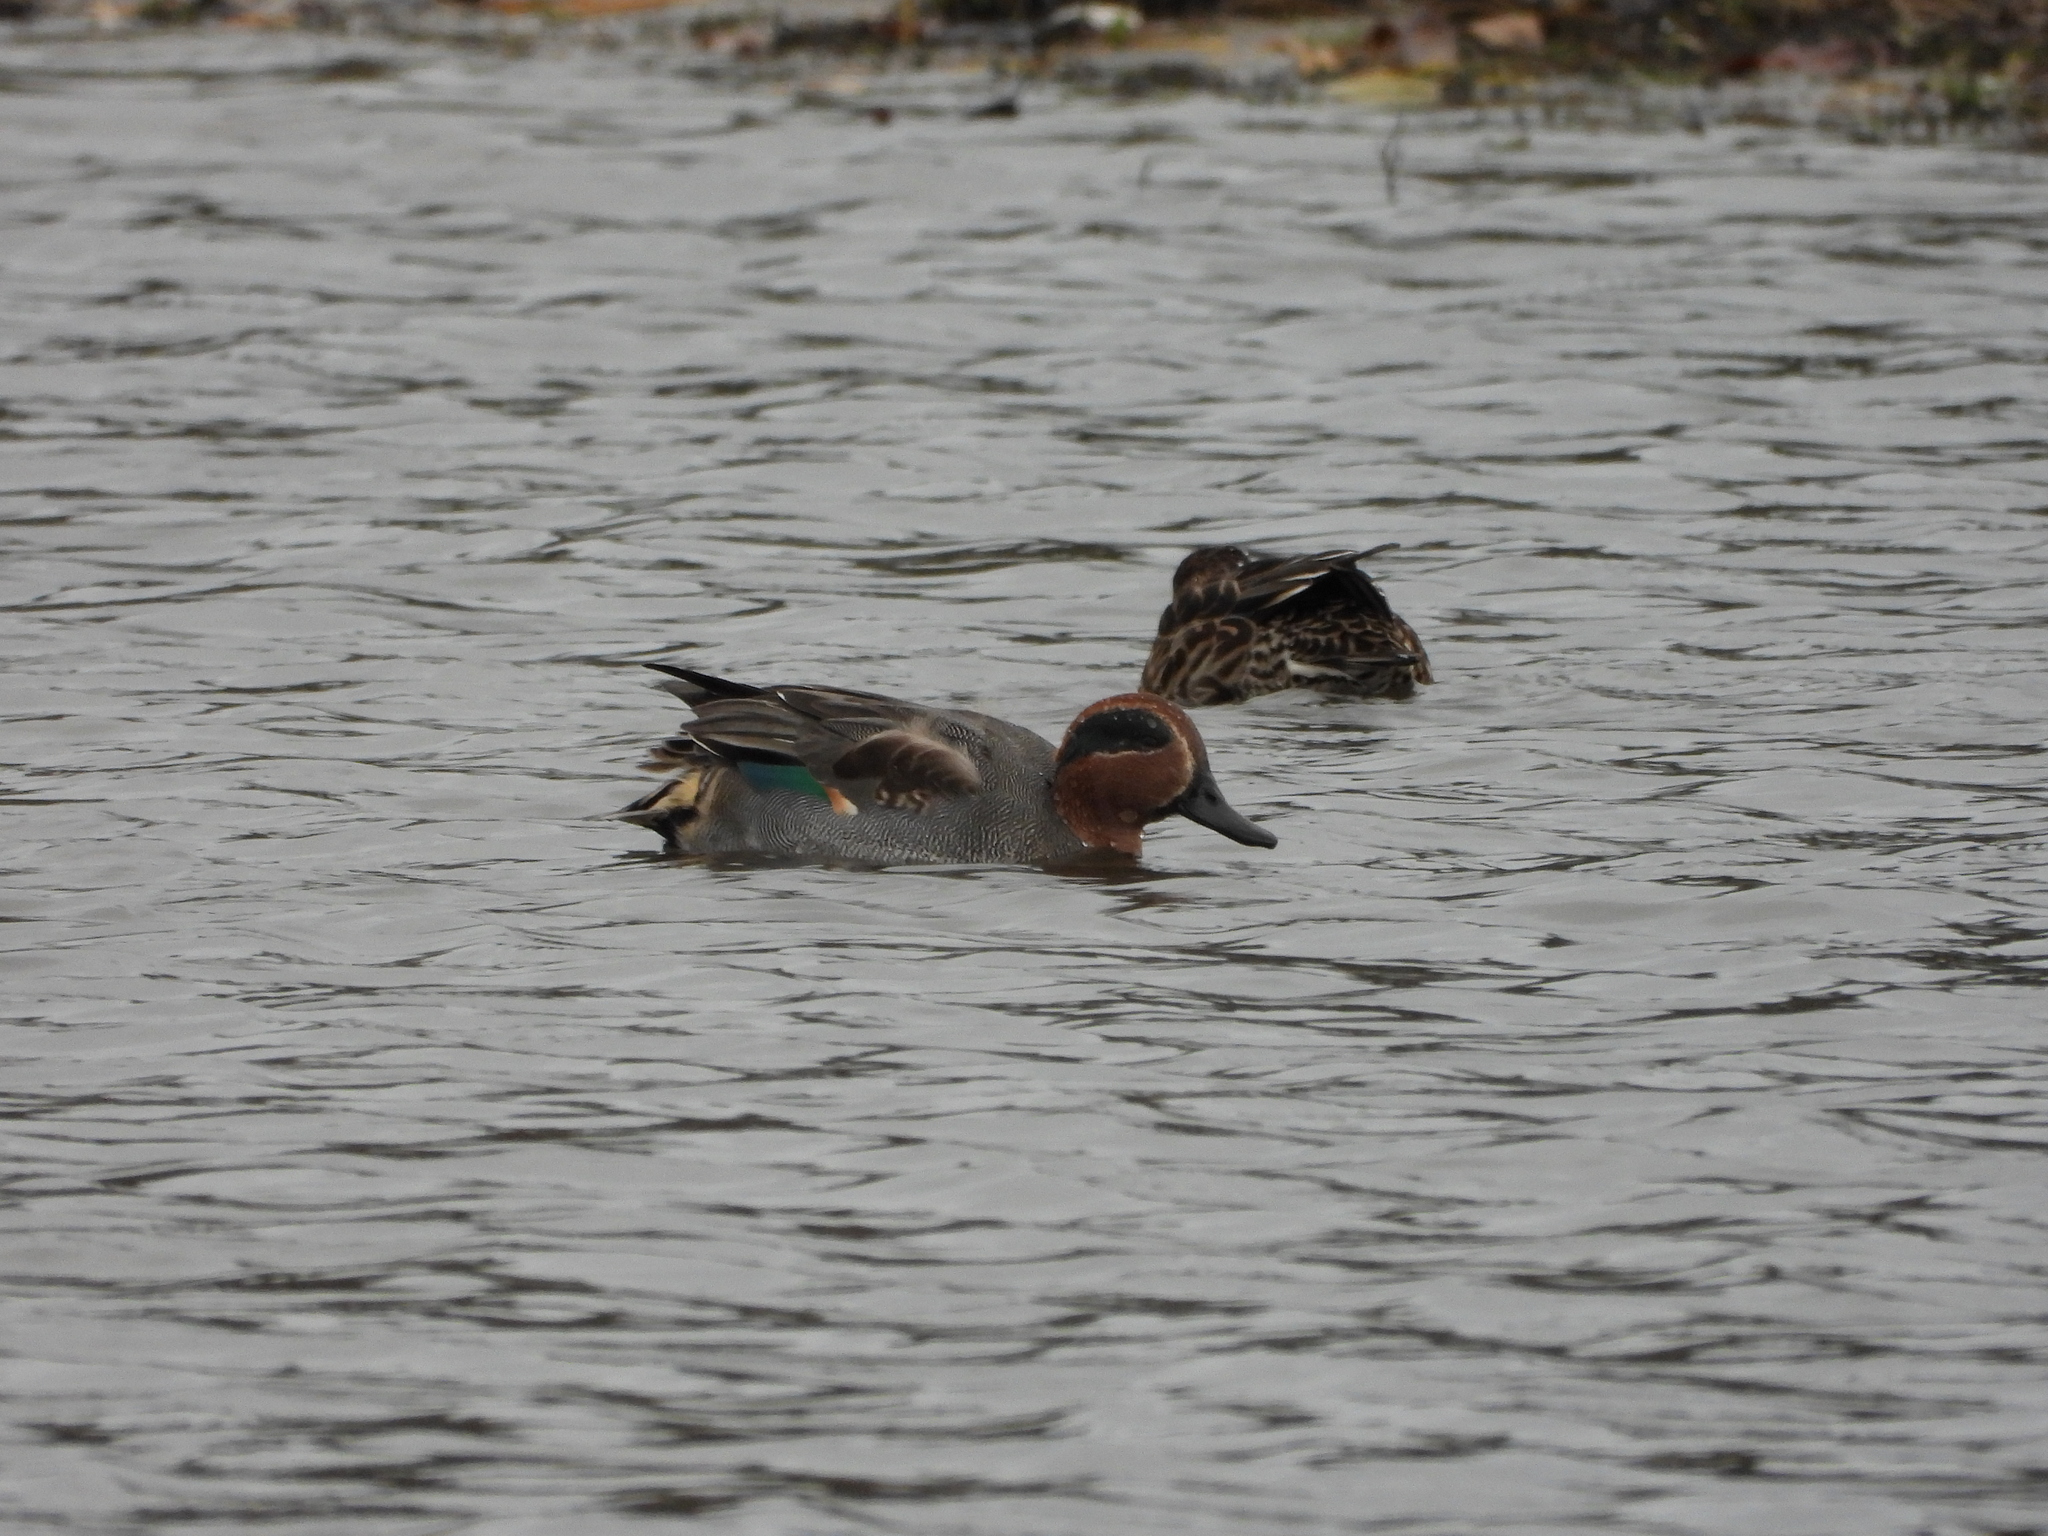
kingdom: Animalia
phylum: Chordata
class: Aves
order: Anseriformes
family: Anatidae
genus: Anas
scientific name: Anas crecca
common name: Eurasian teal
